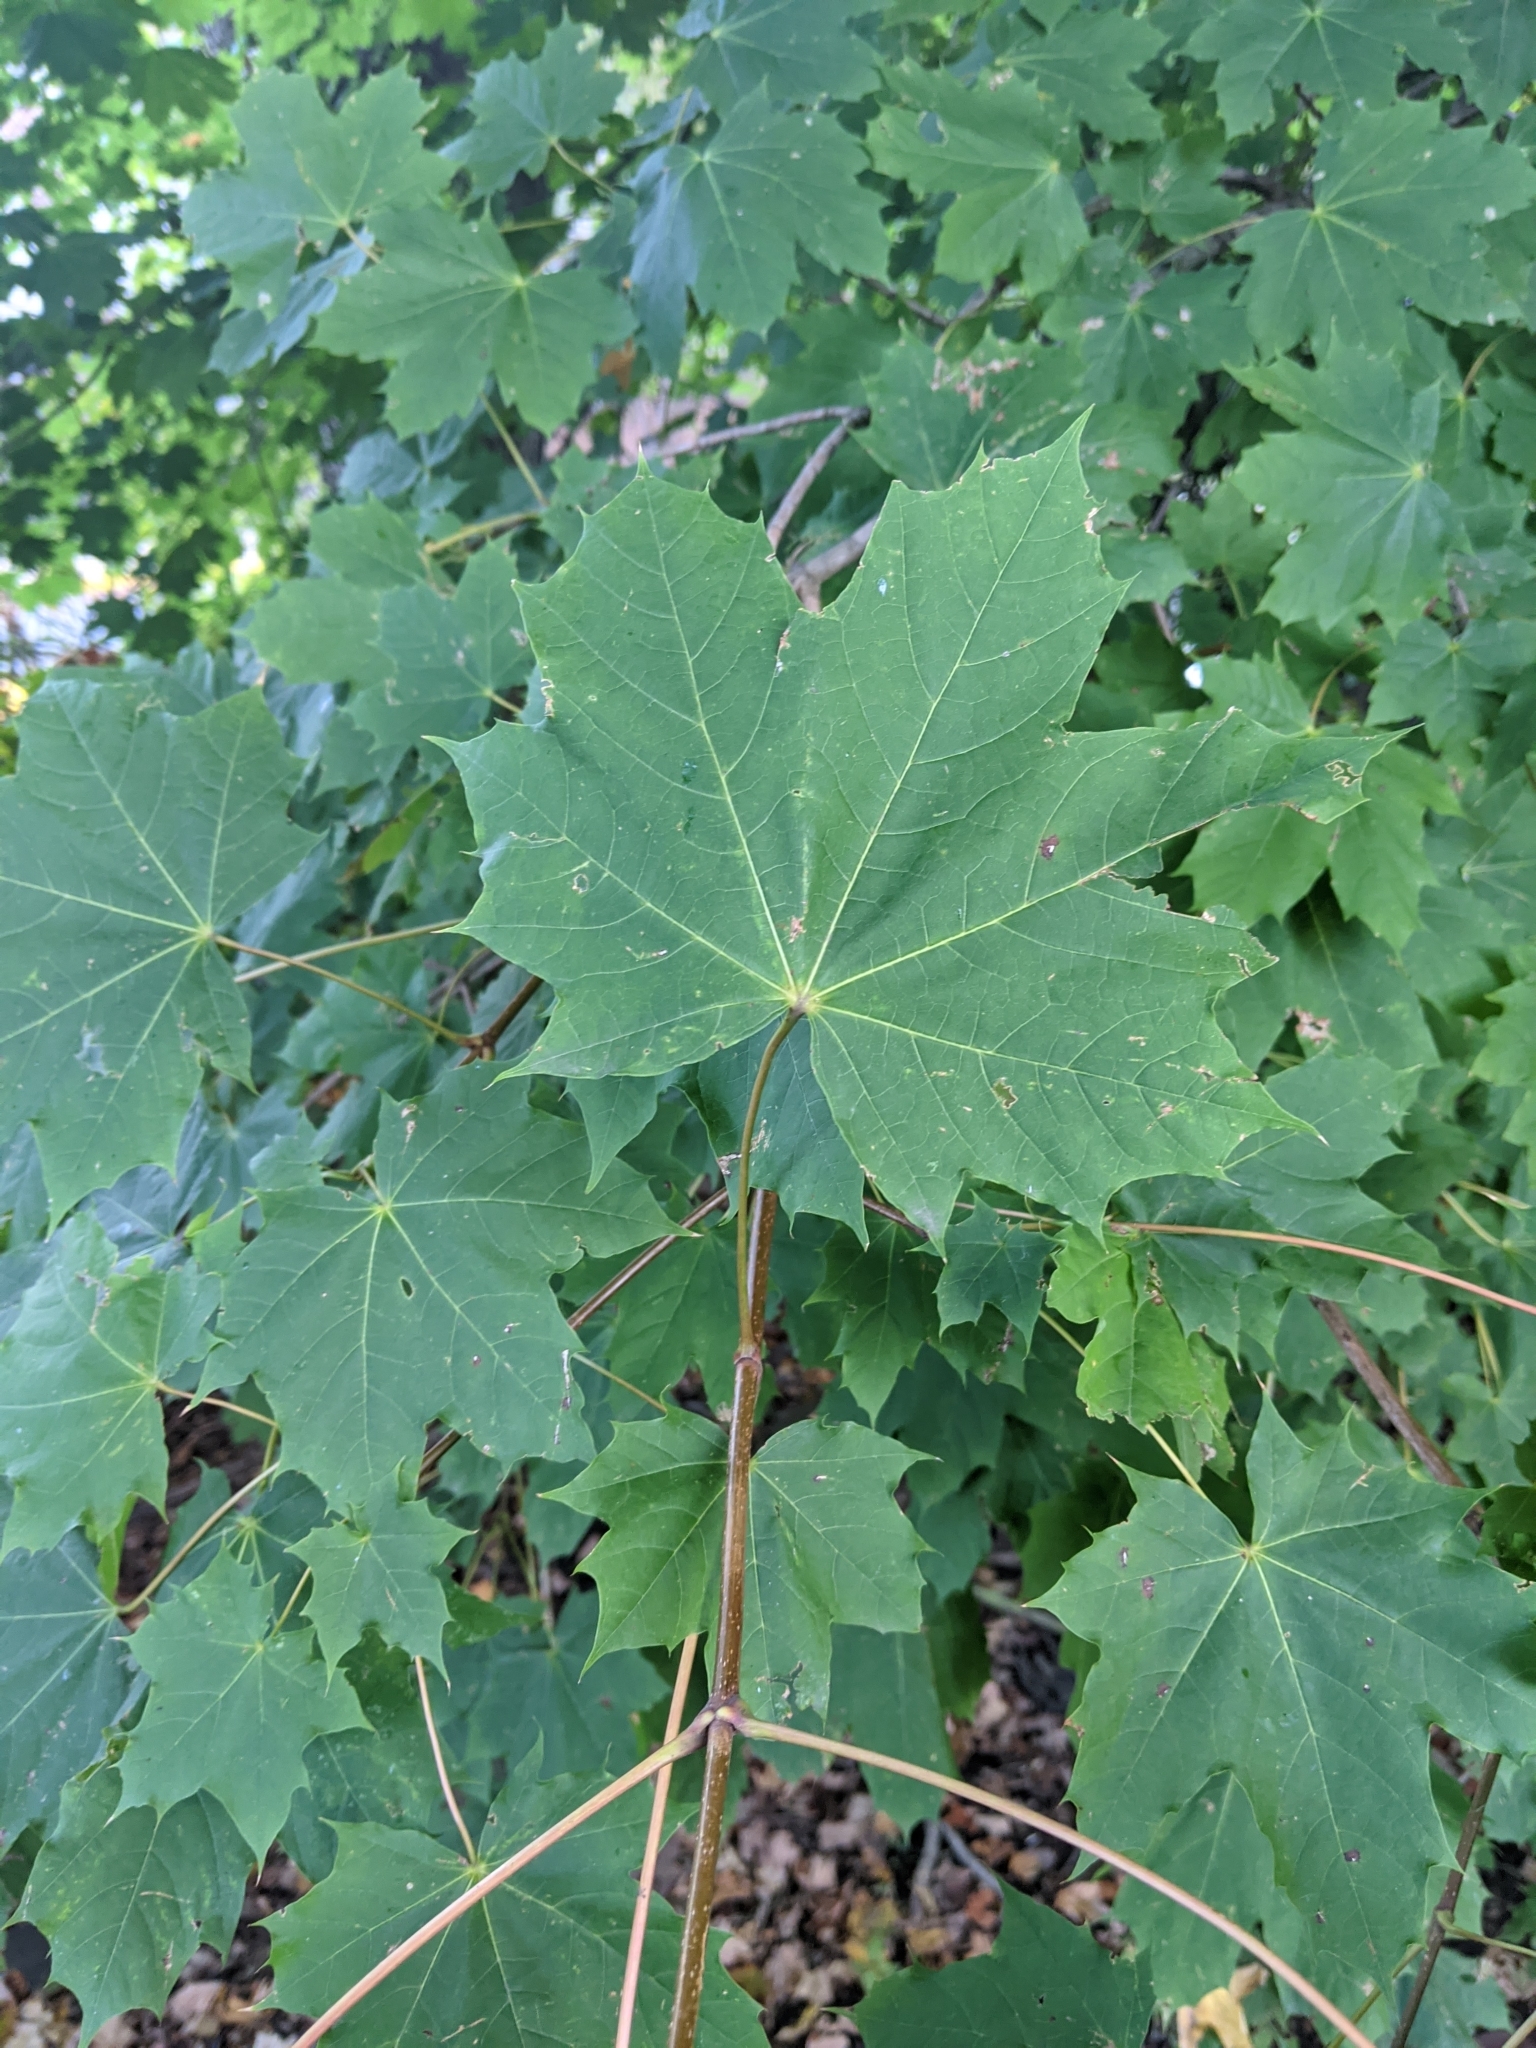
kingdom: Plantae
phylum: Tracheophyta
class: Magnoliopsida
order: Sapindales
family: Sapindaceae
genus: Acer
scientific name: Acer platanoides
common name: Norway maple
